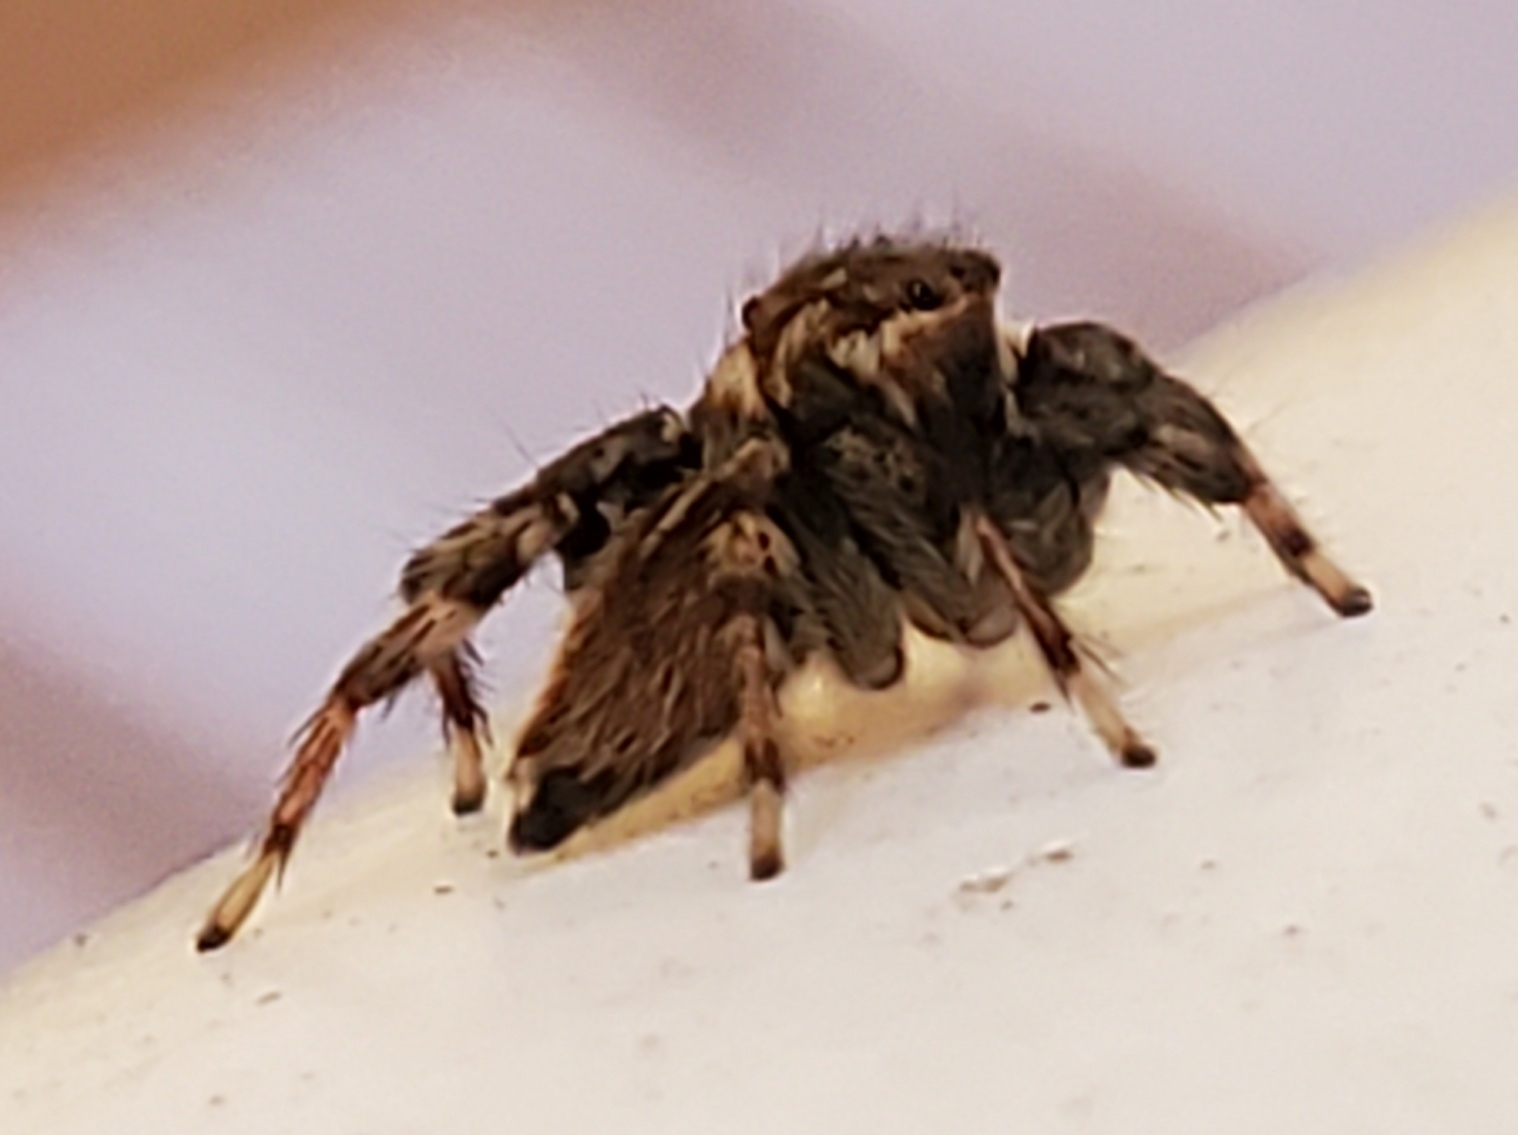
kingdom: Animalia
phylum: Arthropoda
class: Arachnida
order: Araneae
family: Salticidae
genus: Maratus
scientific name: Maratus griseus
